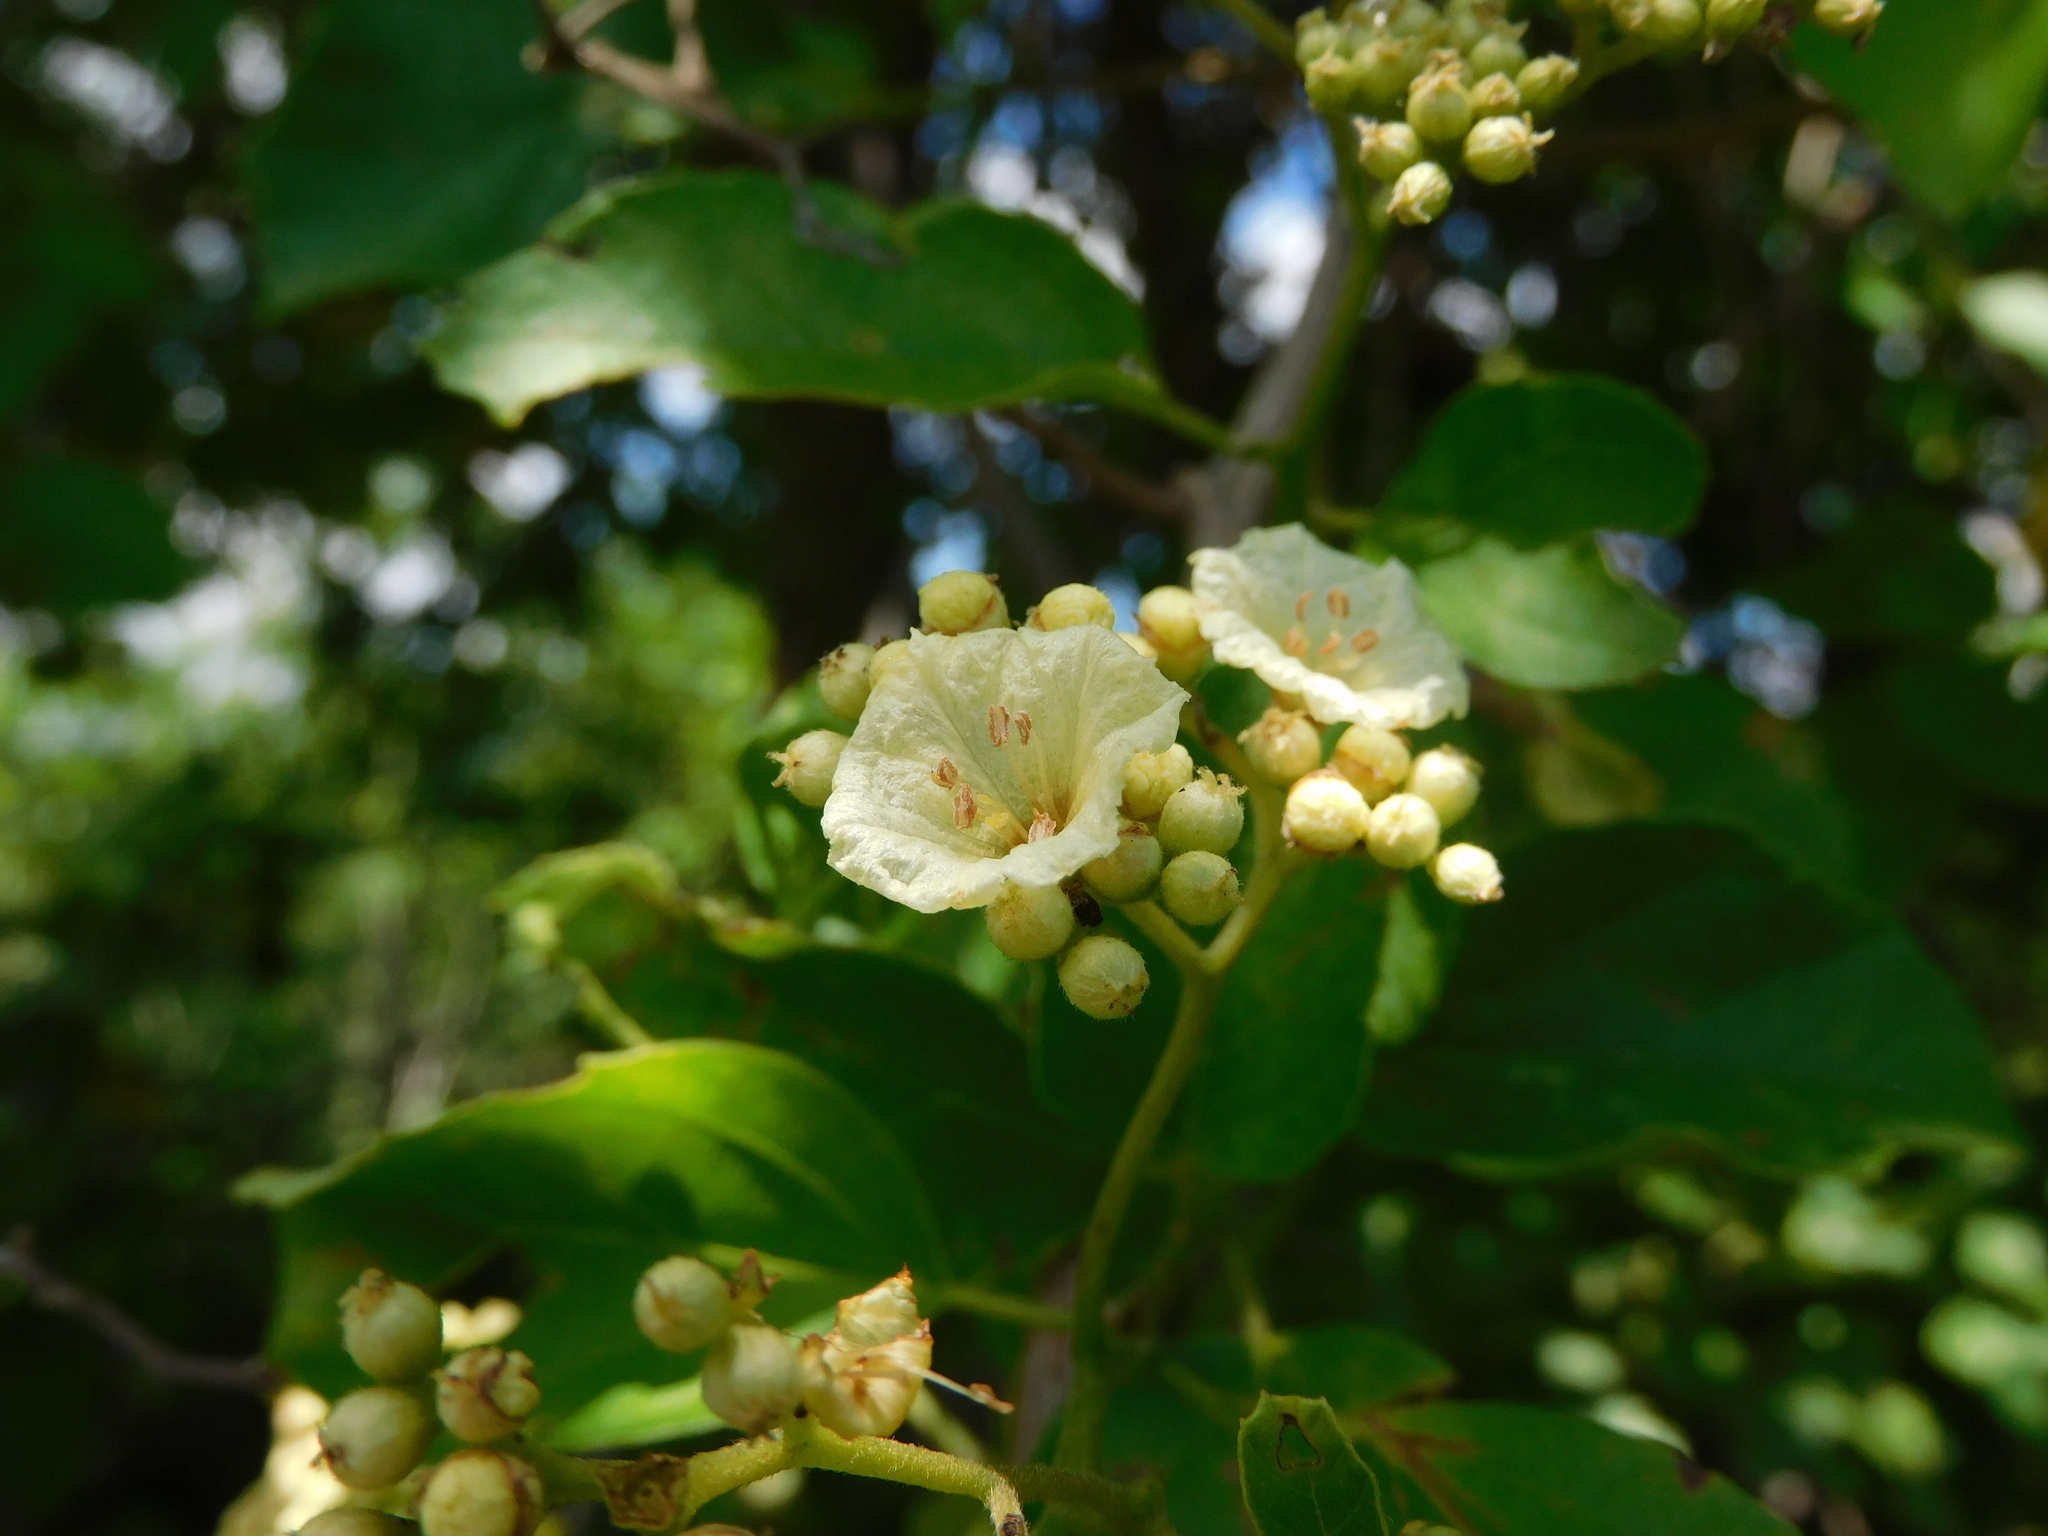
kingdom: Plantae
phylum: Tracheophyta
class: Magnoliopsida
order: Boraginales
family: Cordiaceae
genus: Cordia
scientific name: Cordia dentata
